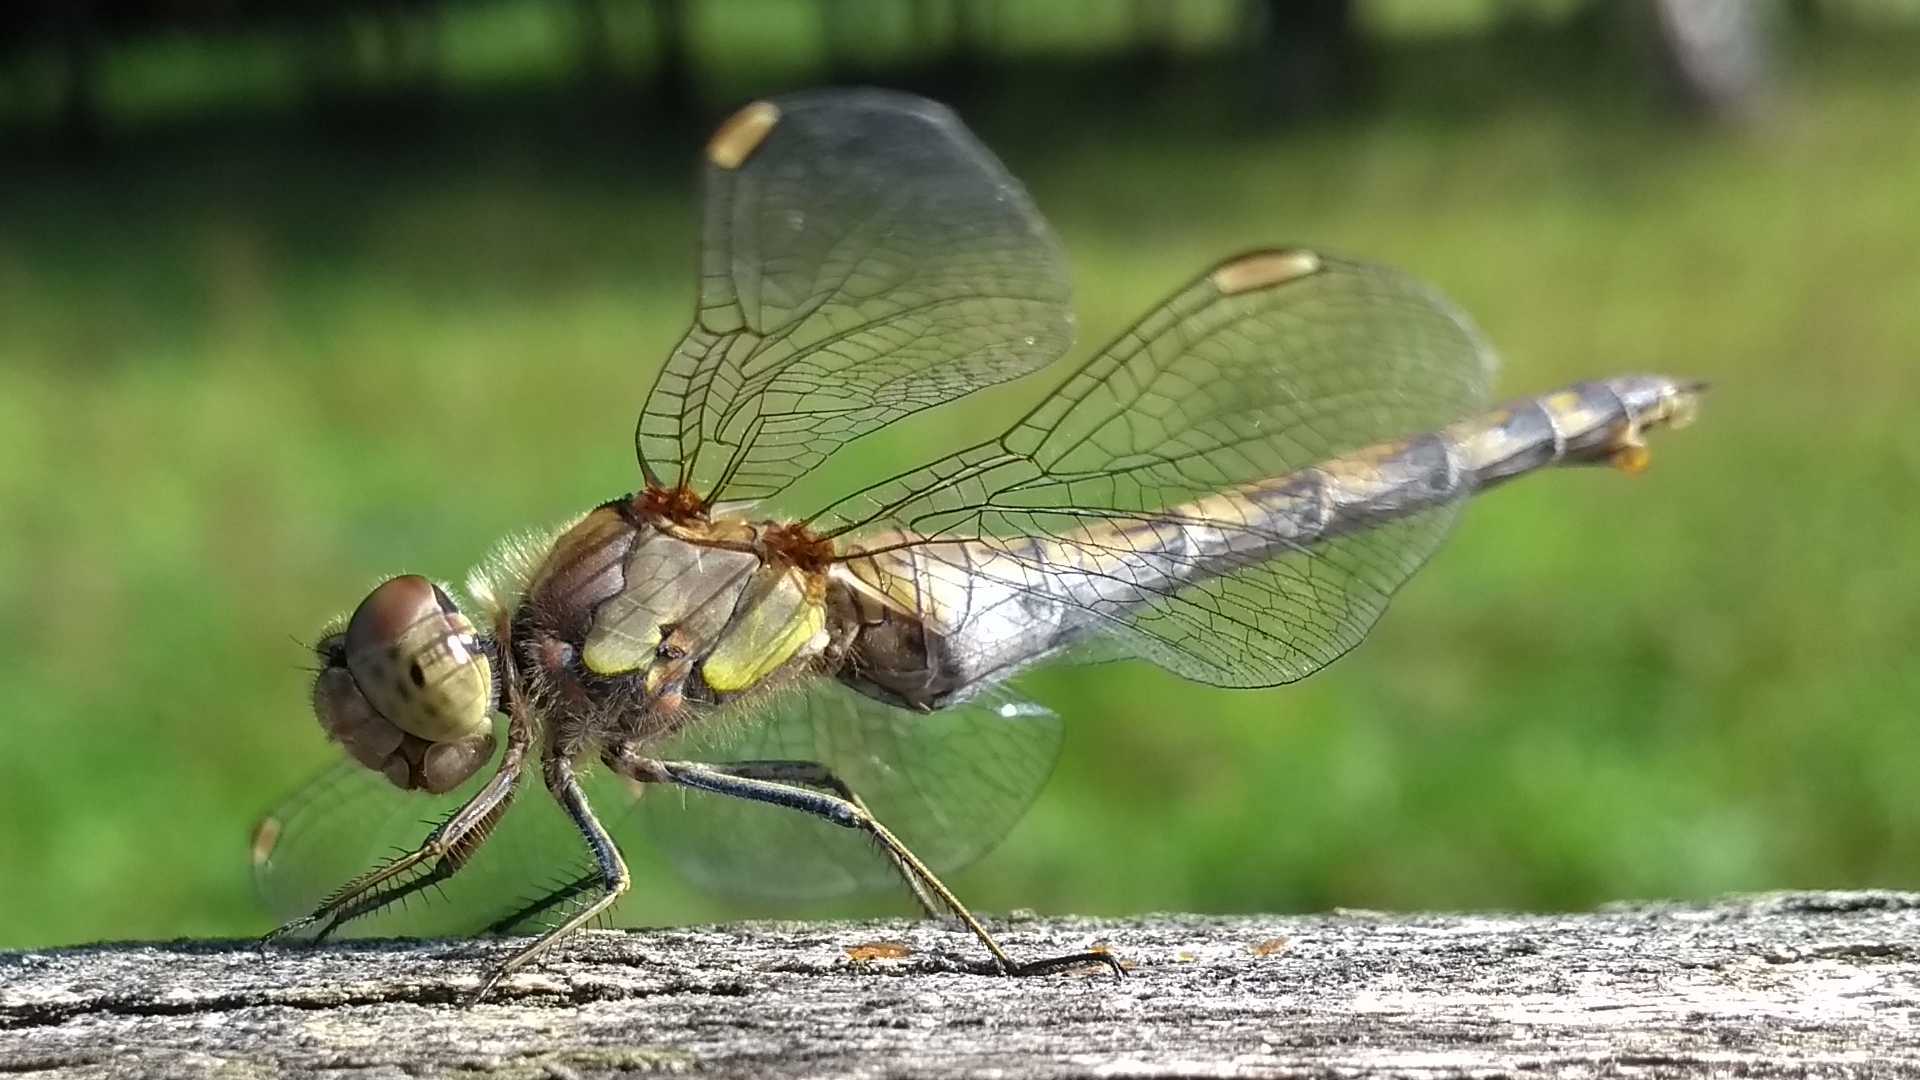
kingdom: Animalia
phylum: Arthropoda
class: Insecta
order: Odonata
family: Libellulidae
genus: Sympetrum
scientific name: Sympetrum striolatum
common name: Common darter
